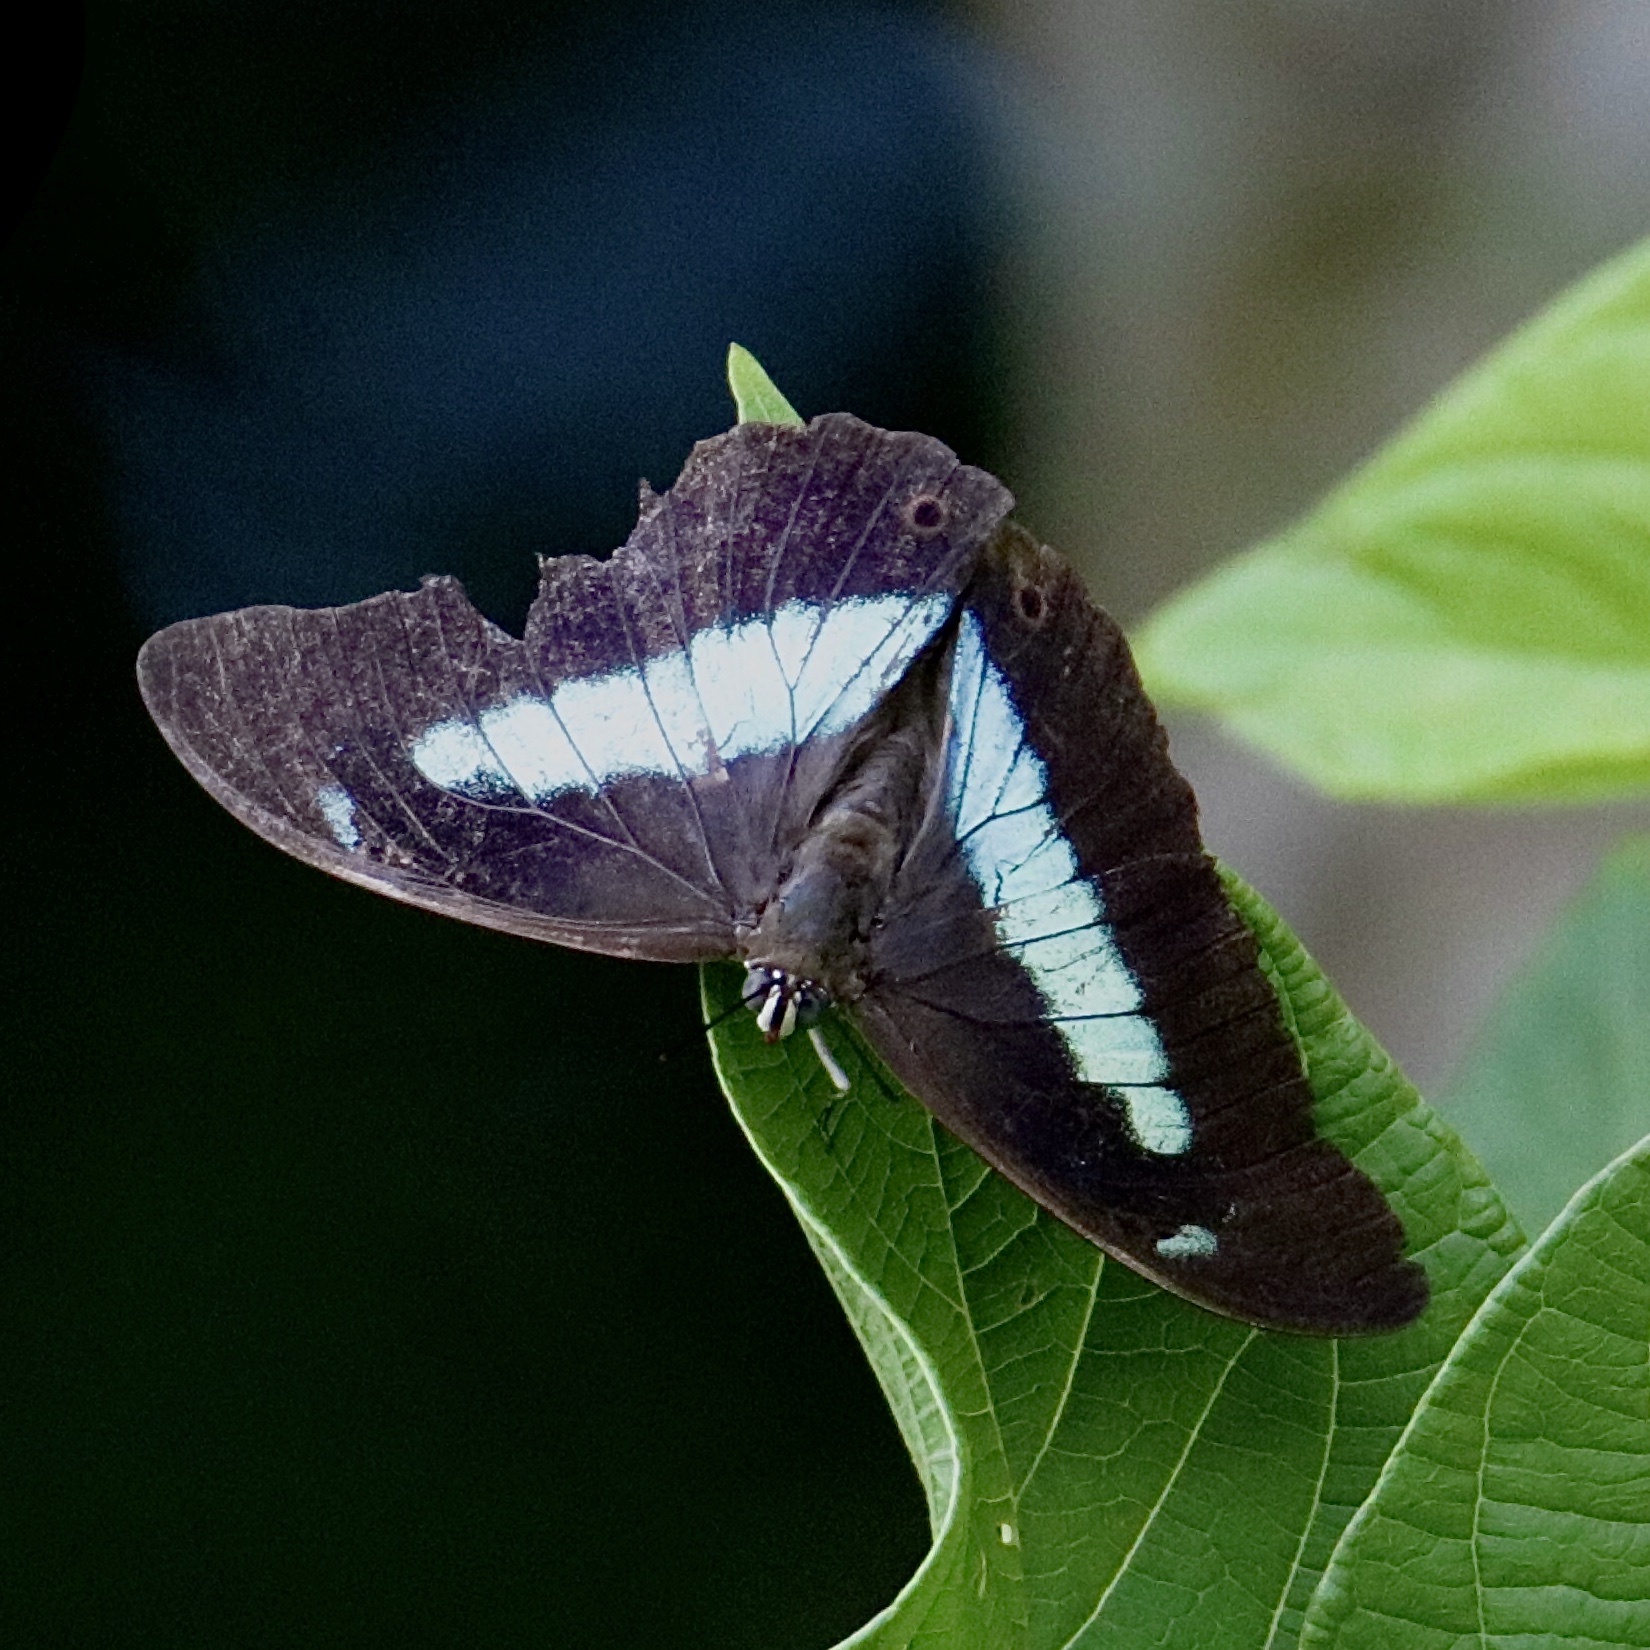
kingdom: Animalia
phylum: Arthropoda
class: Insecta
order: Lepidoptera
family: Nymphalidae
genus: Prepona
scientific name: Prepona demophon
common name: One-spotted prepona
